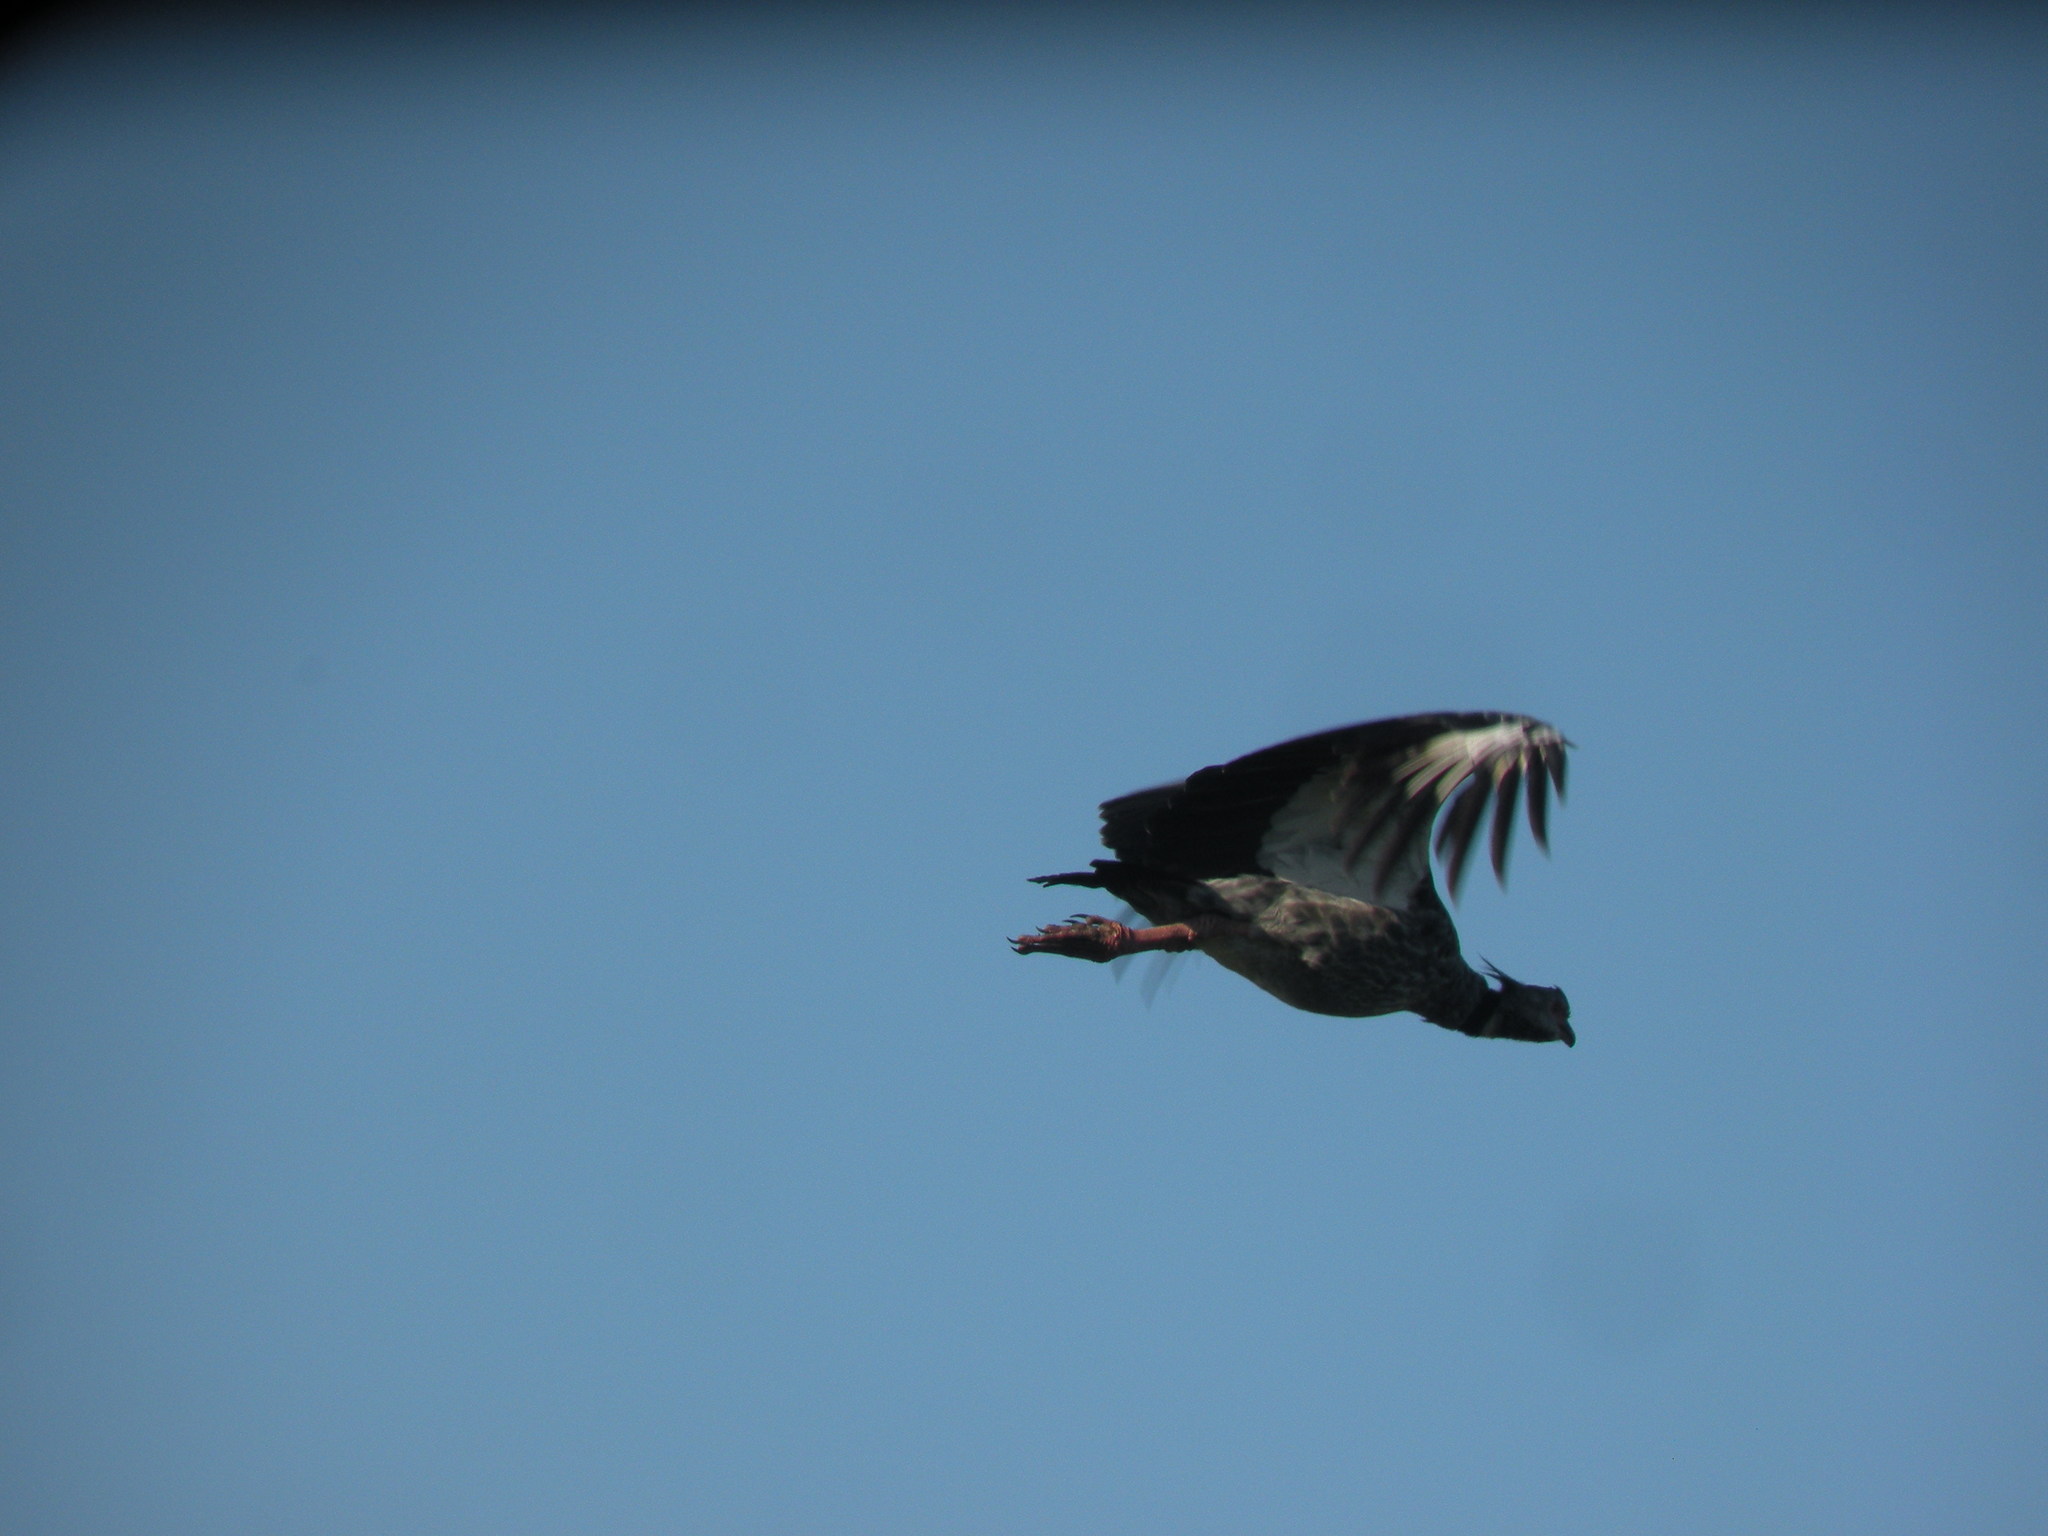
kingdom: Animalia
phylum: Chordata
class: Aves
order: Anseriformes
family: Anhimidae
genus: Chauna
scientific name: Chauna torquata
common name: Southern screamer
